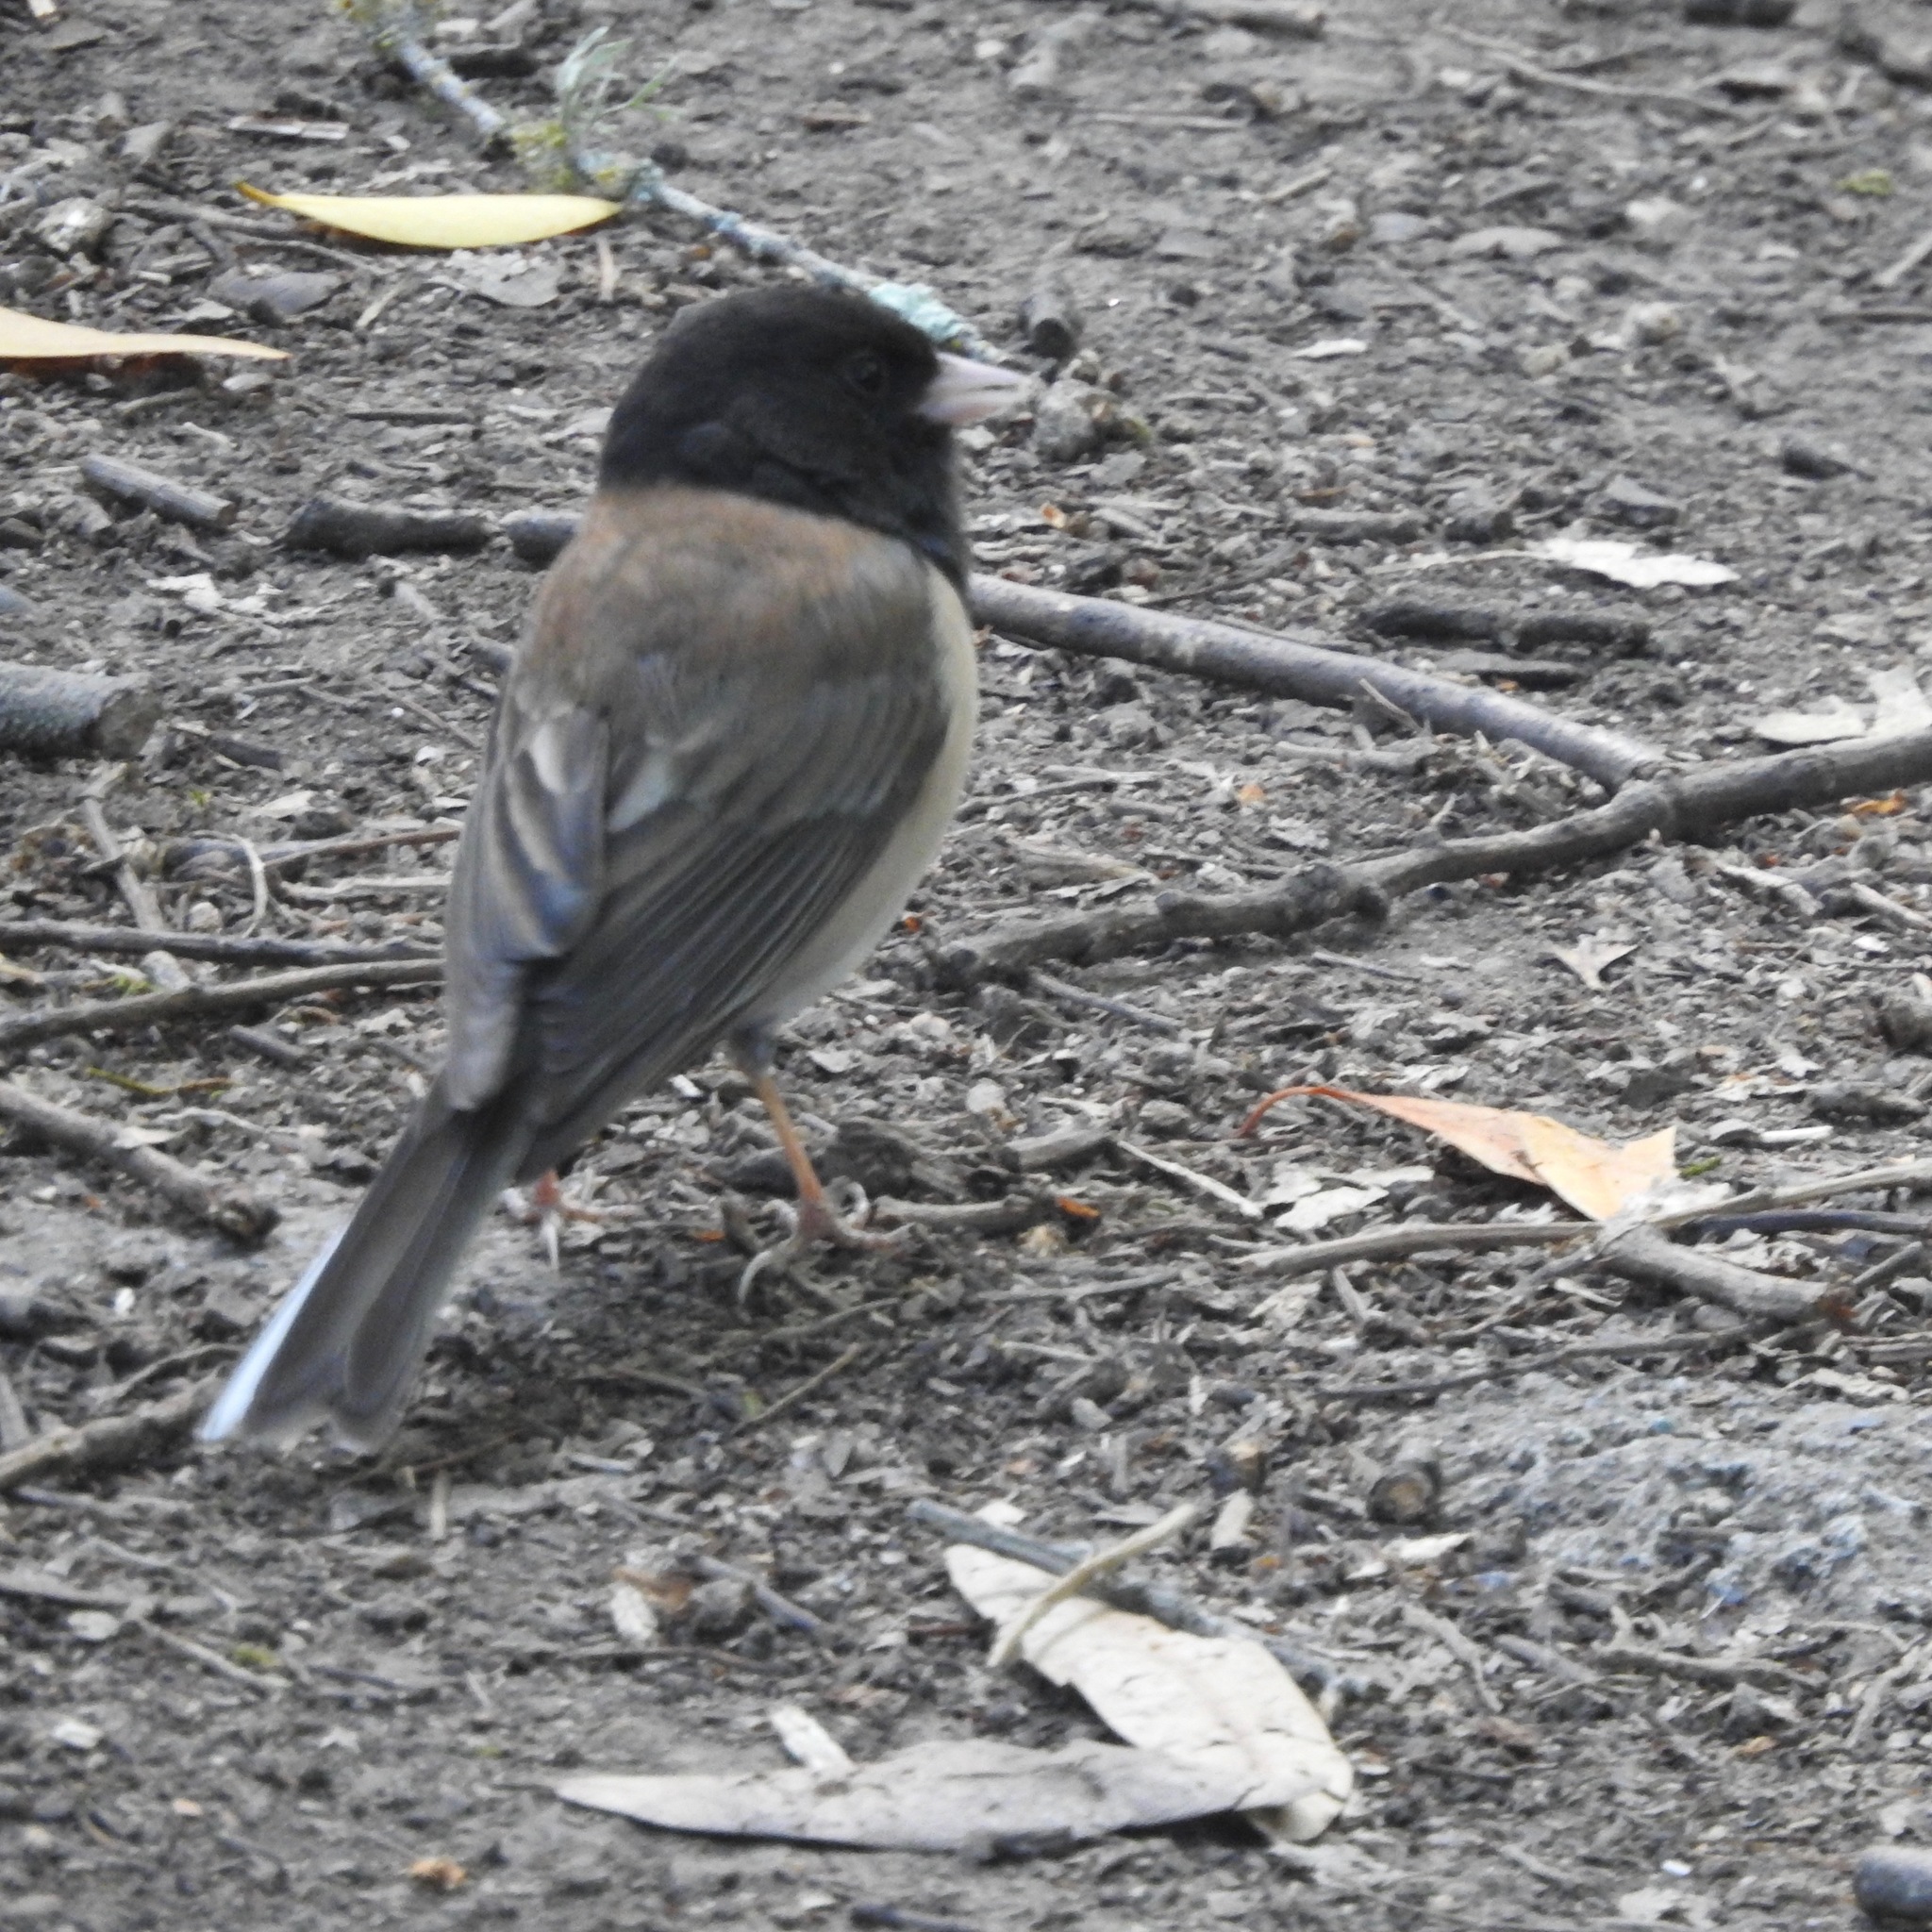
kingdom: Animalia
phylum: Chordata
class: Aves
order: Passeriformes
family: Passerellidae
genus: Junco
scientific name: Junco hyemalis
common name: Dark-eyed junco
